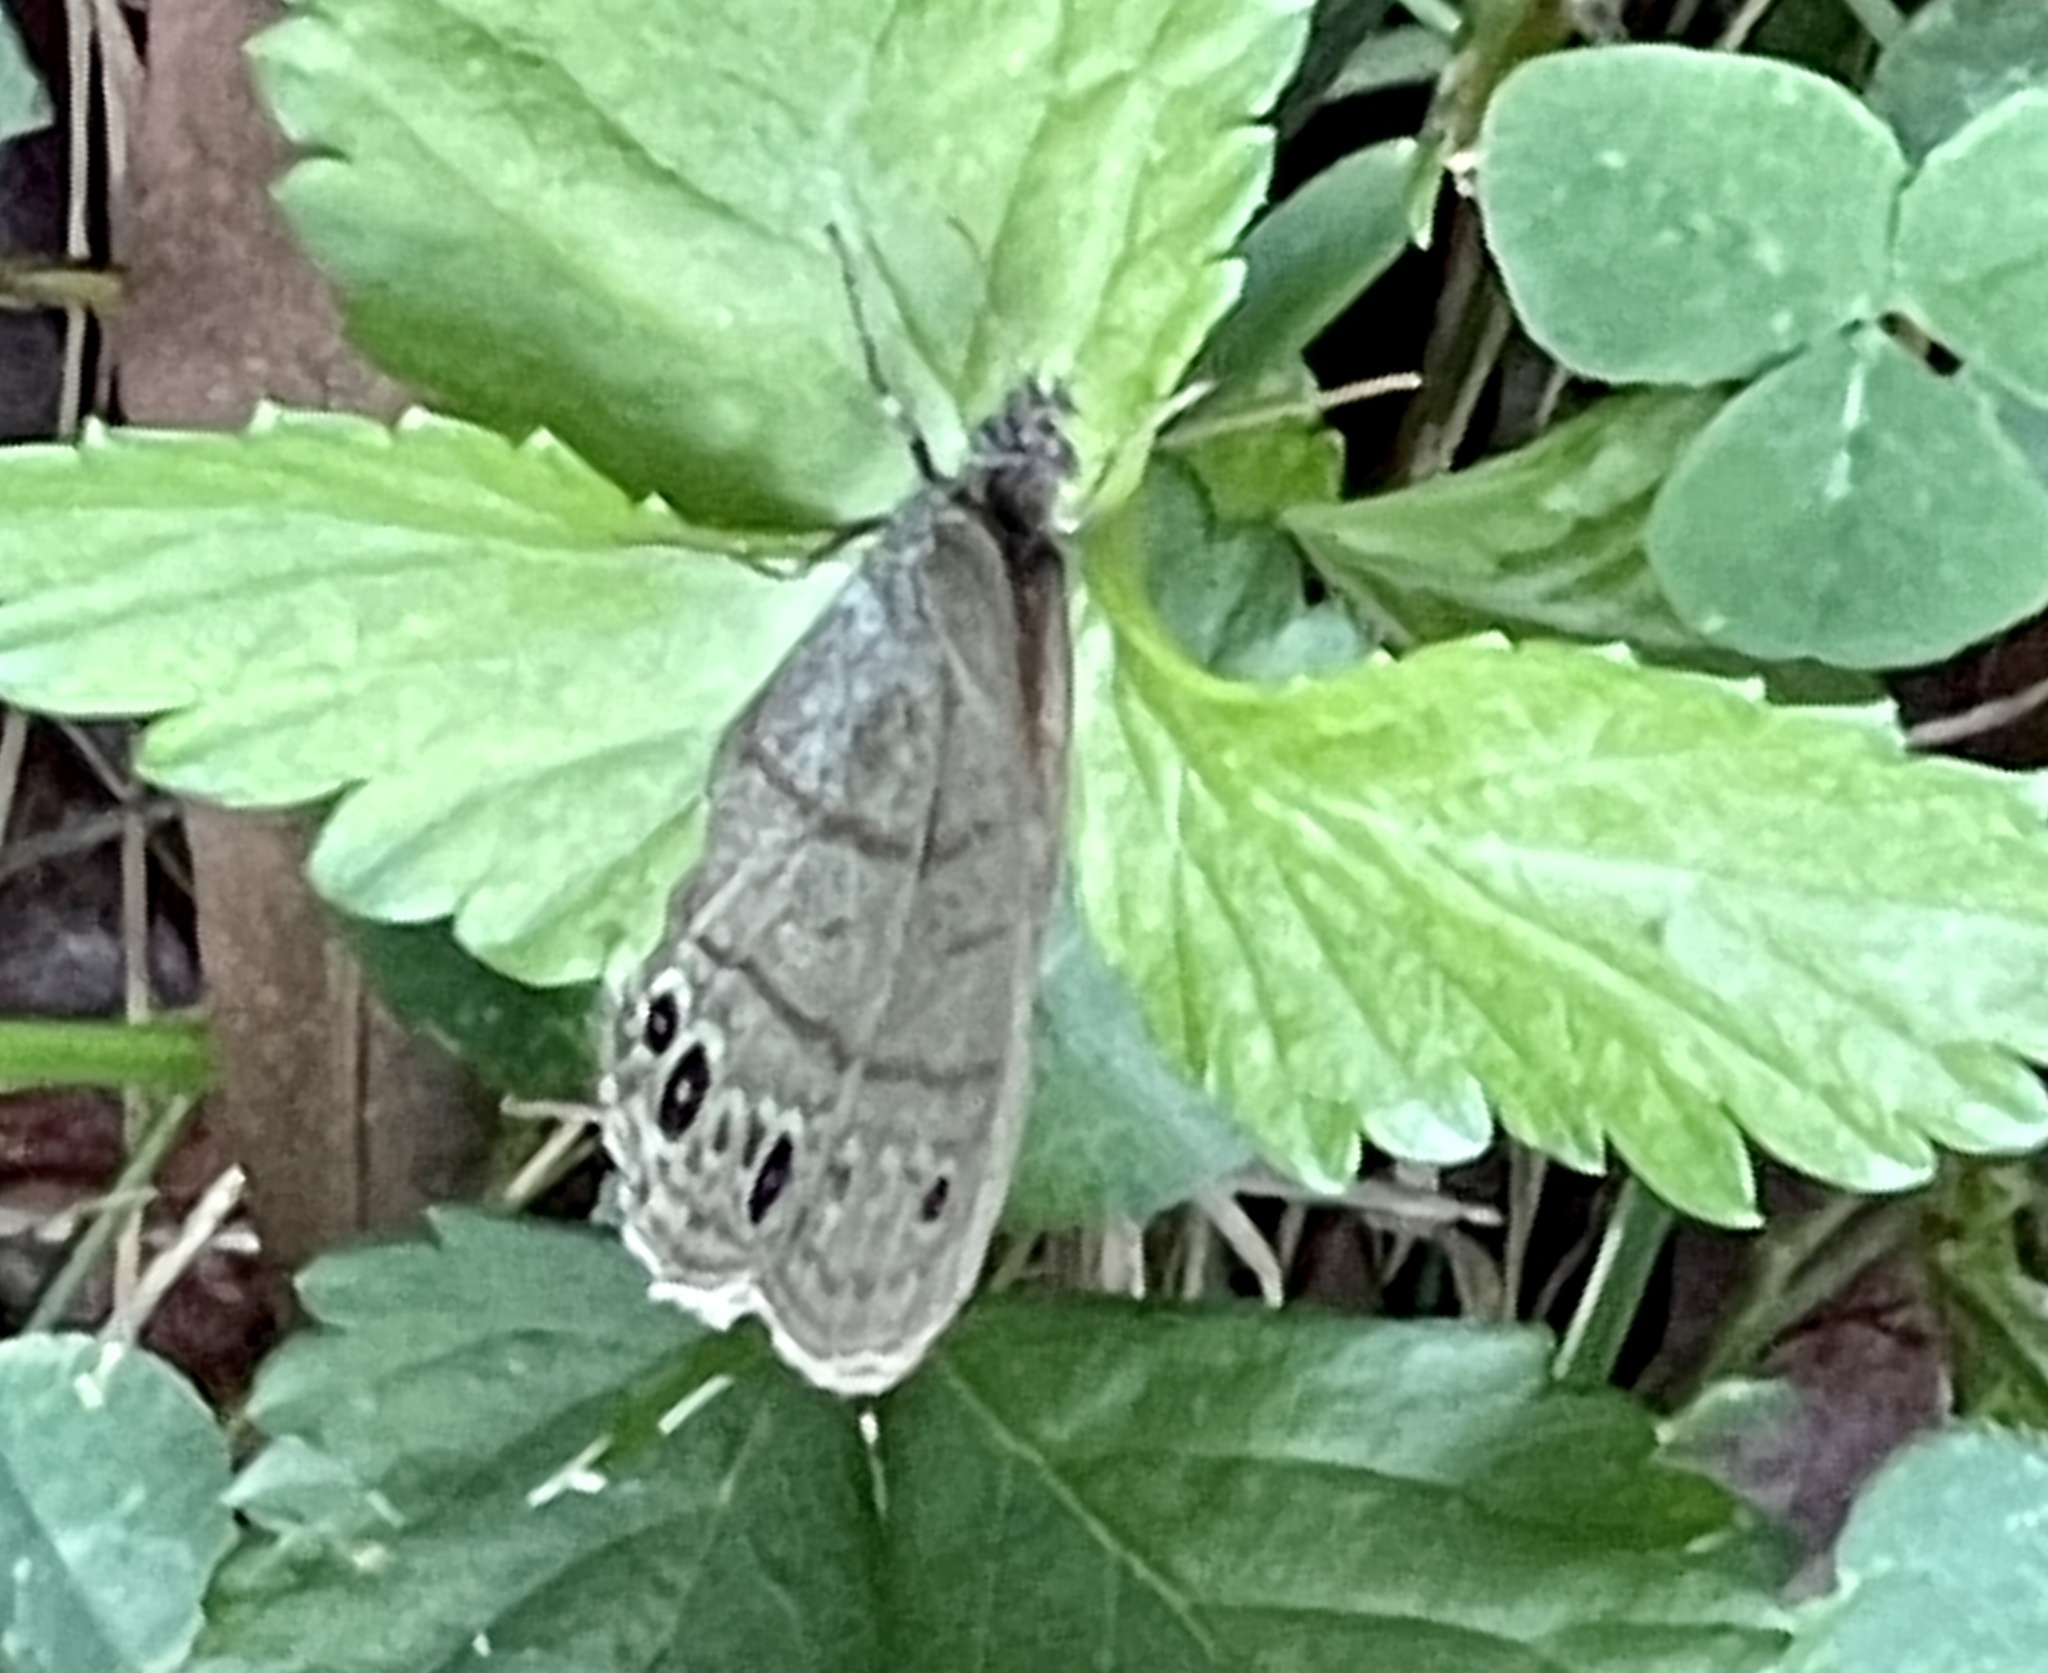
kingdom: Animalia
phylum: Arthropoda
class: Insecta
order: Lepidoptera
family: Nymphalidae
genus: Hermeuptychia
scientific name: Hermeuptychia hermes
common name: Hermes satyr
